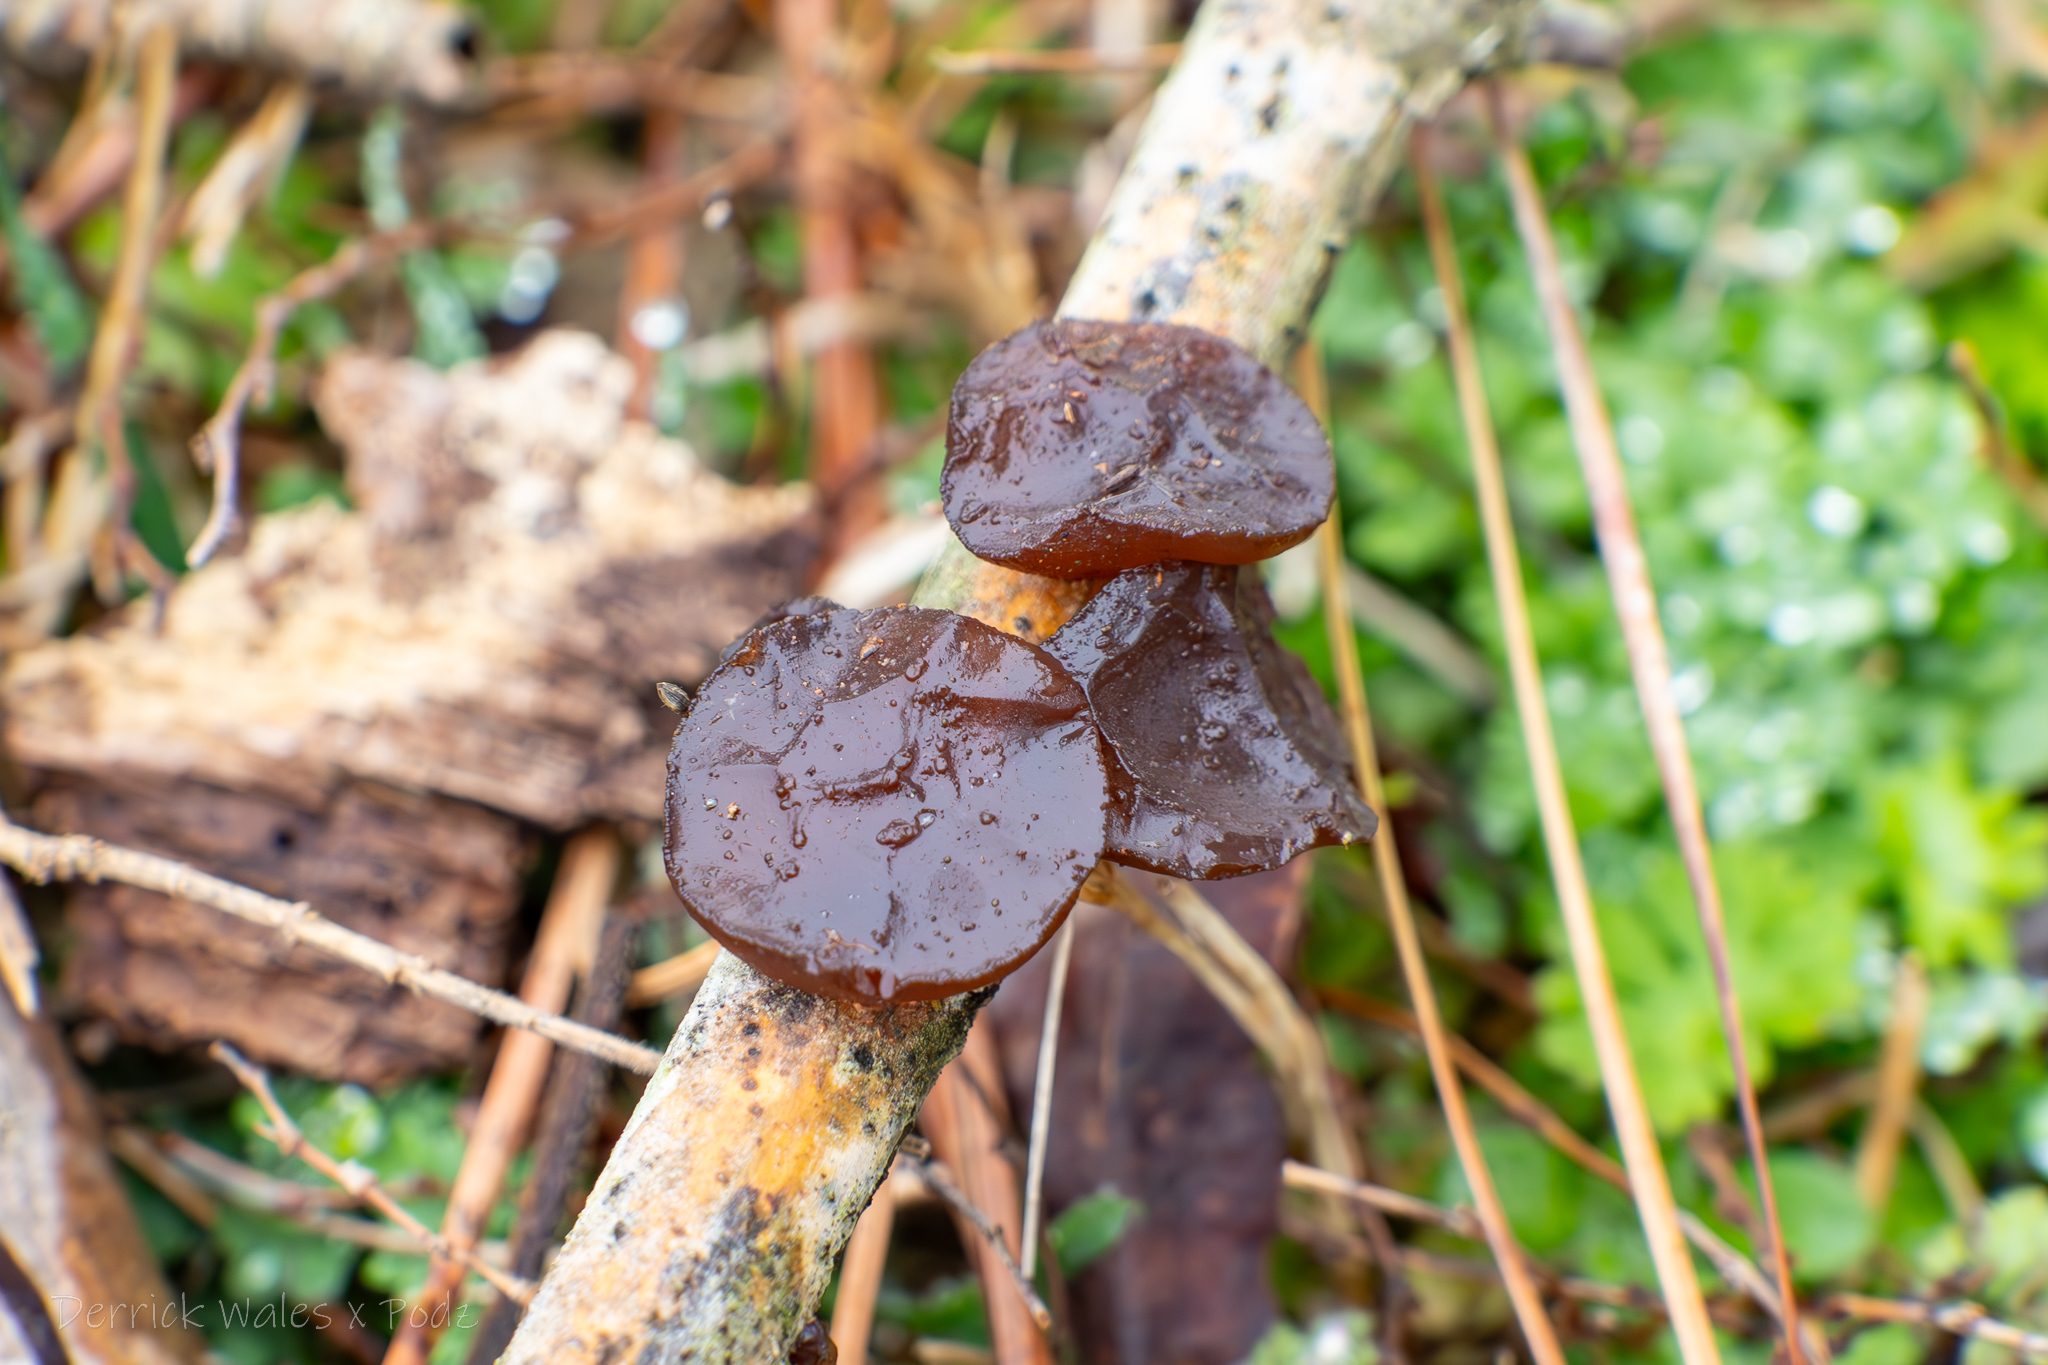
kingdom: Fungi
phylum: Basidiomycota
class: Agaricomycetes
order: Auriculariales
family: Auriculariaceae
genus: Exidia
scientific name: Exidia
